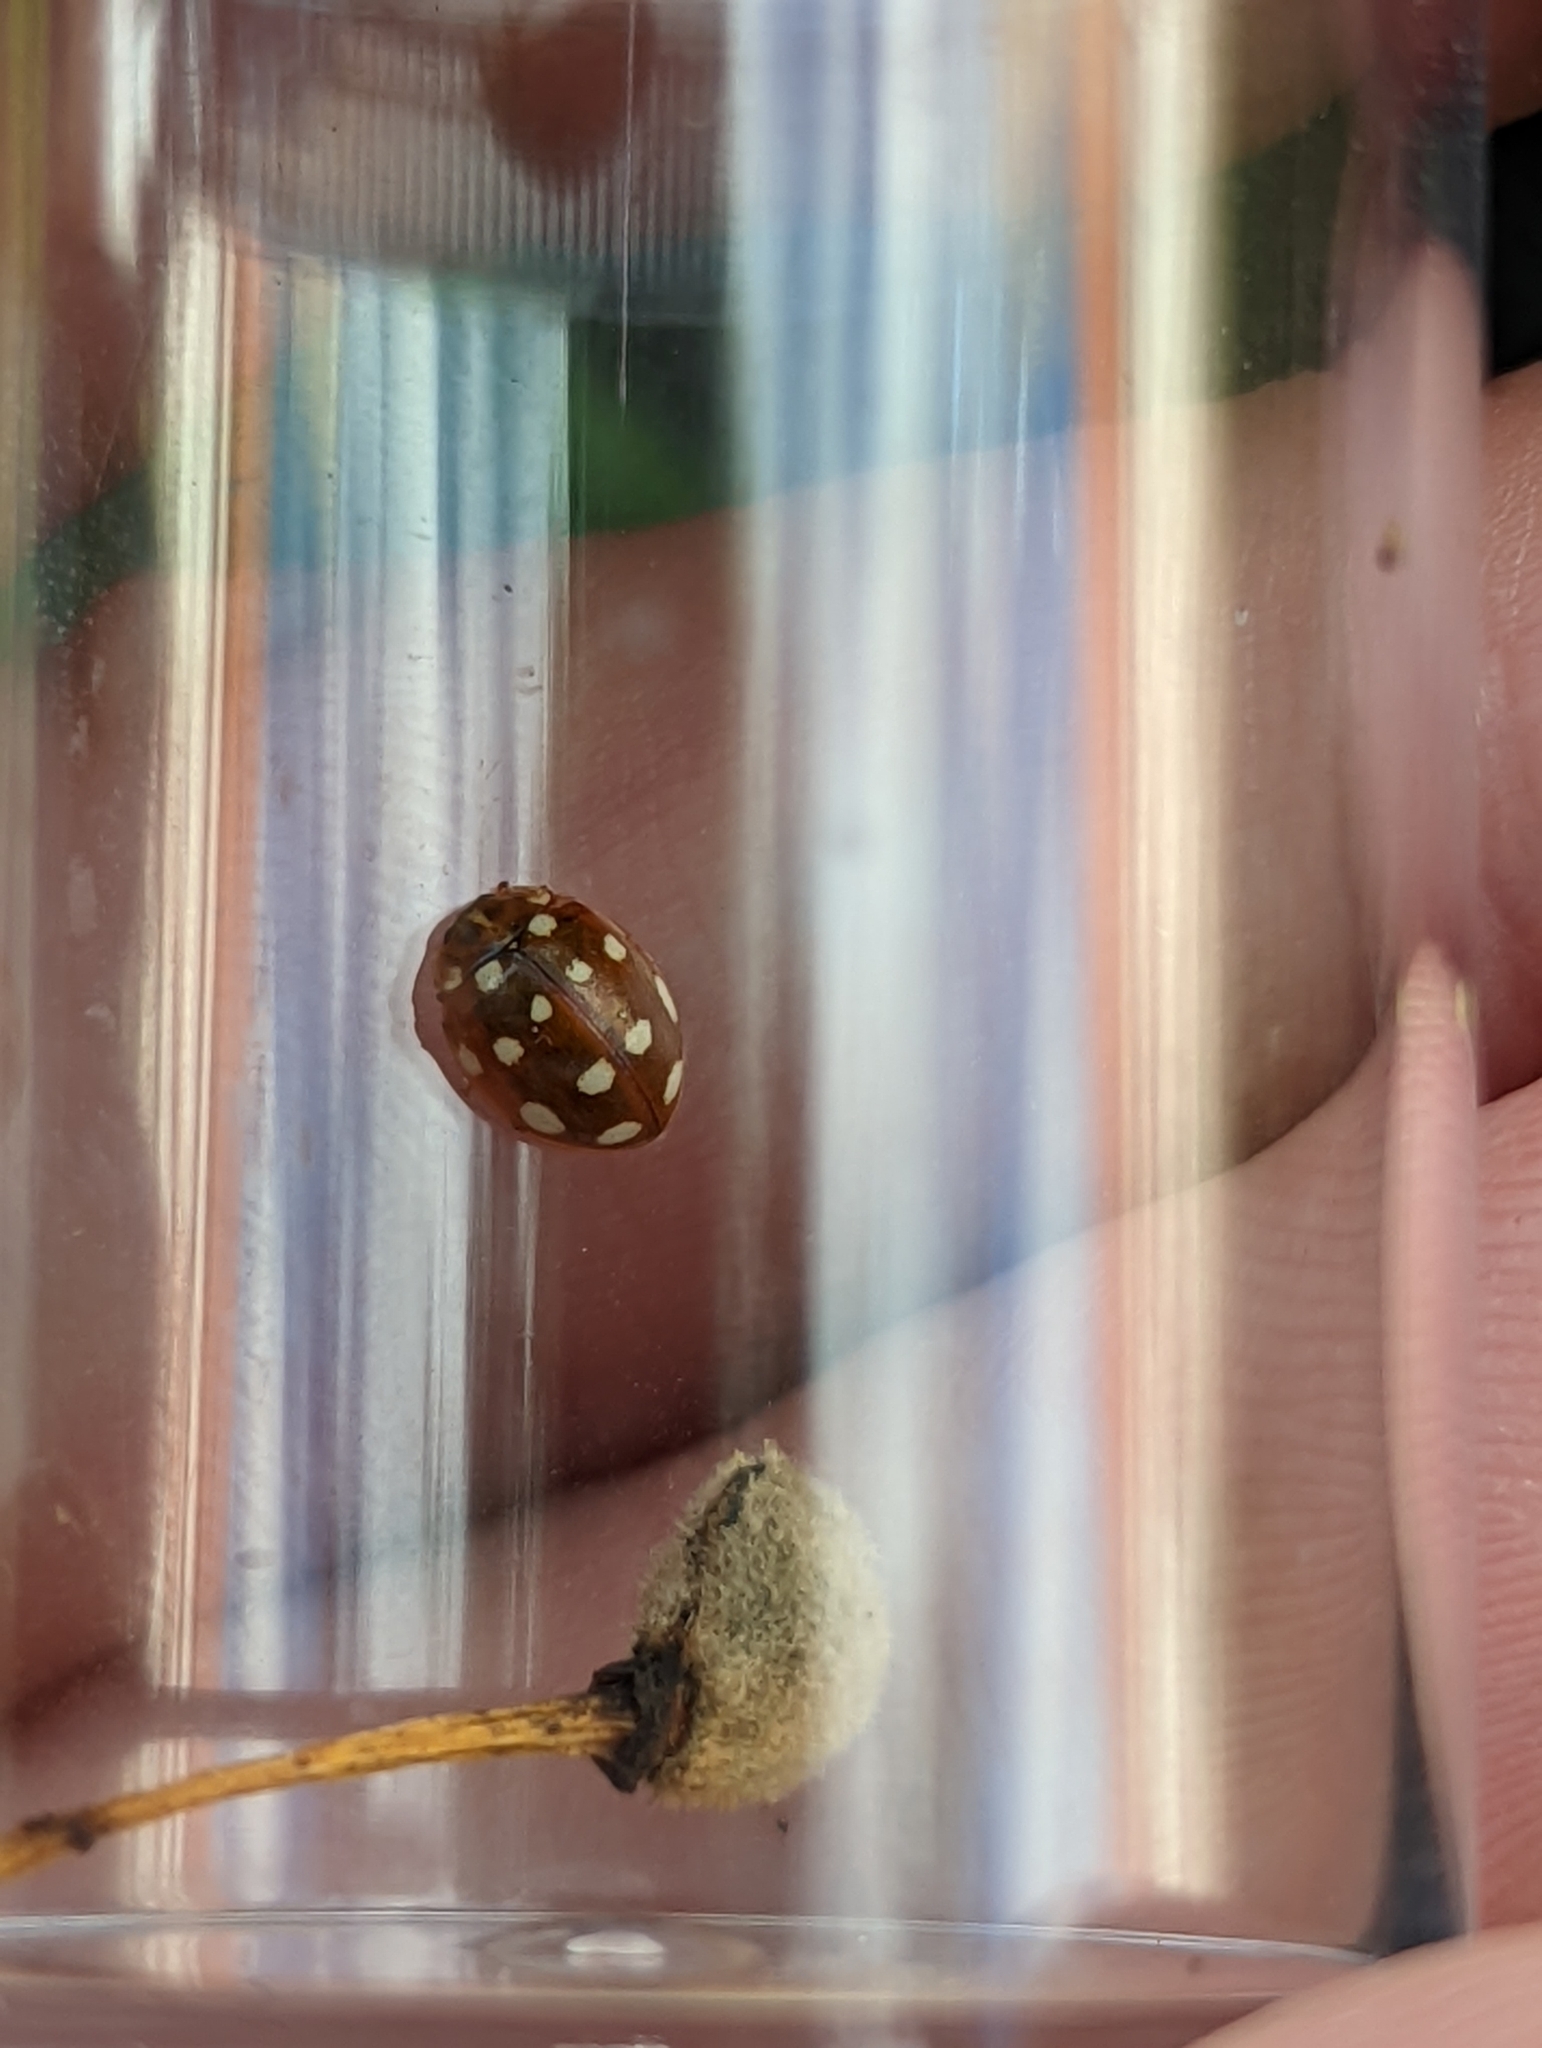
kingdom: Animalia
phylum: Arthropoda
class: Insecta
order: Coleoptera
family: Coccinellidae
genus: Calvia
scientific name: Calvia quatuordecimguttata
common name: Cream-spot ladybird
